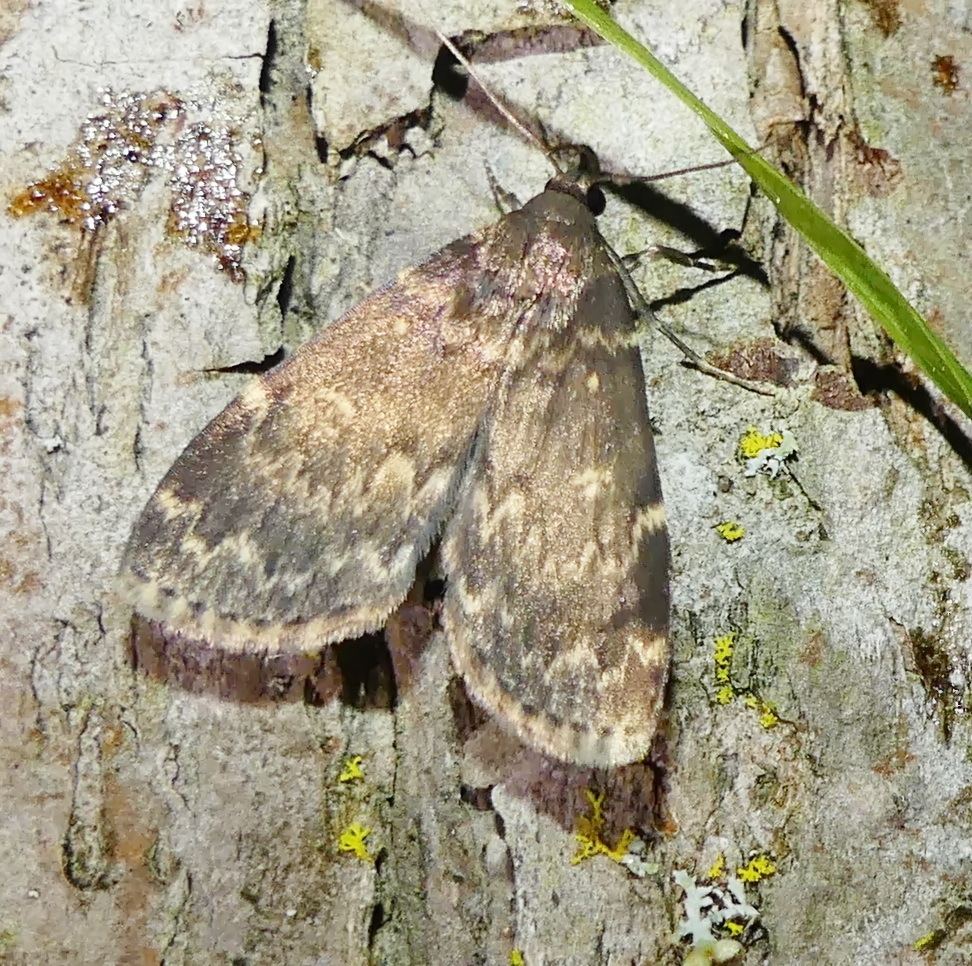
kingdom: Animalia
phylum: Arthropoda
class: Insecta
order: Lepidoptera
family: Erebidae
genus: Idia
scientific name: Idia lubricalis
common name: Twin-striped tabby
